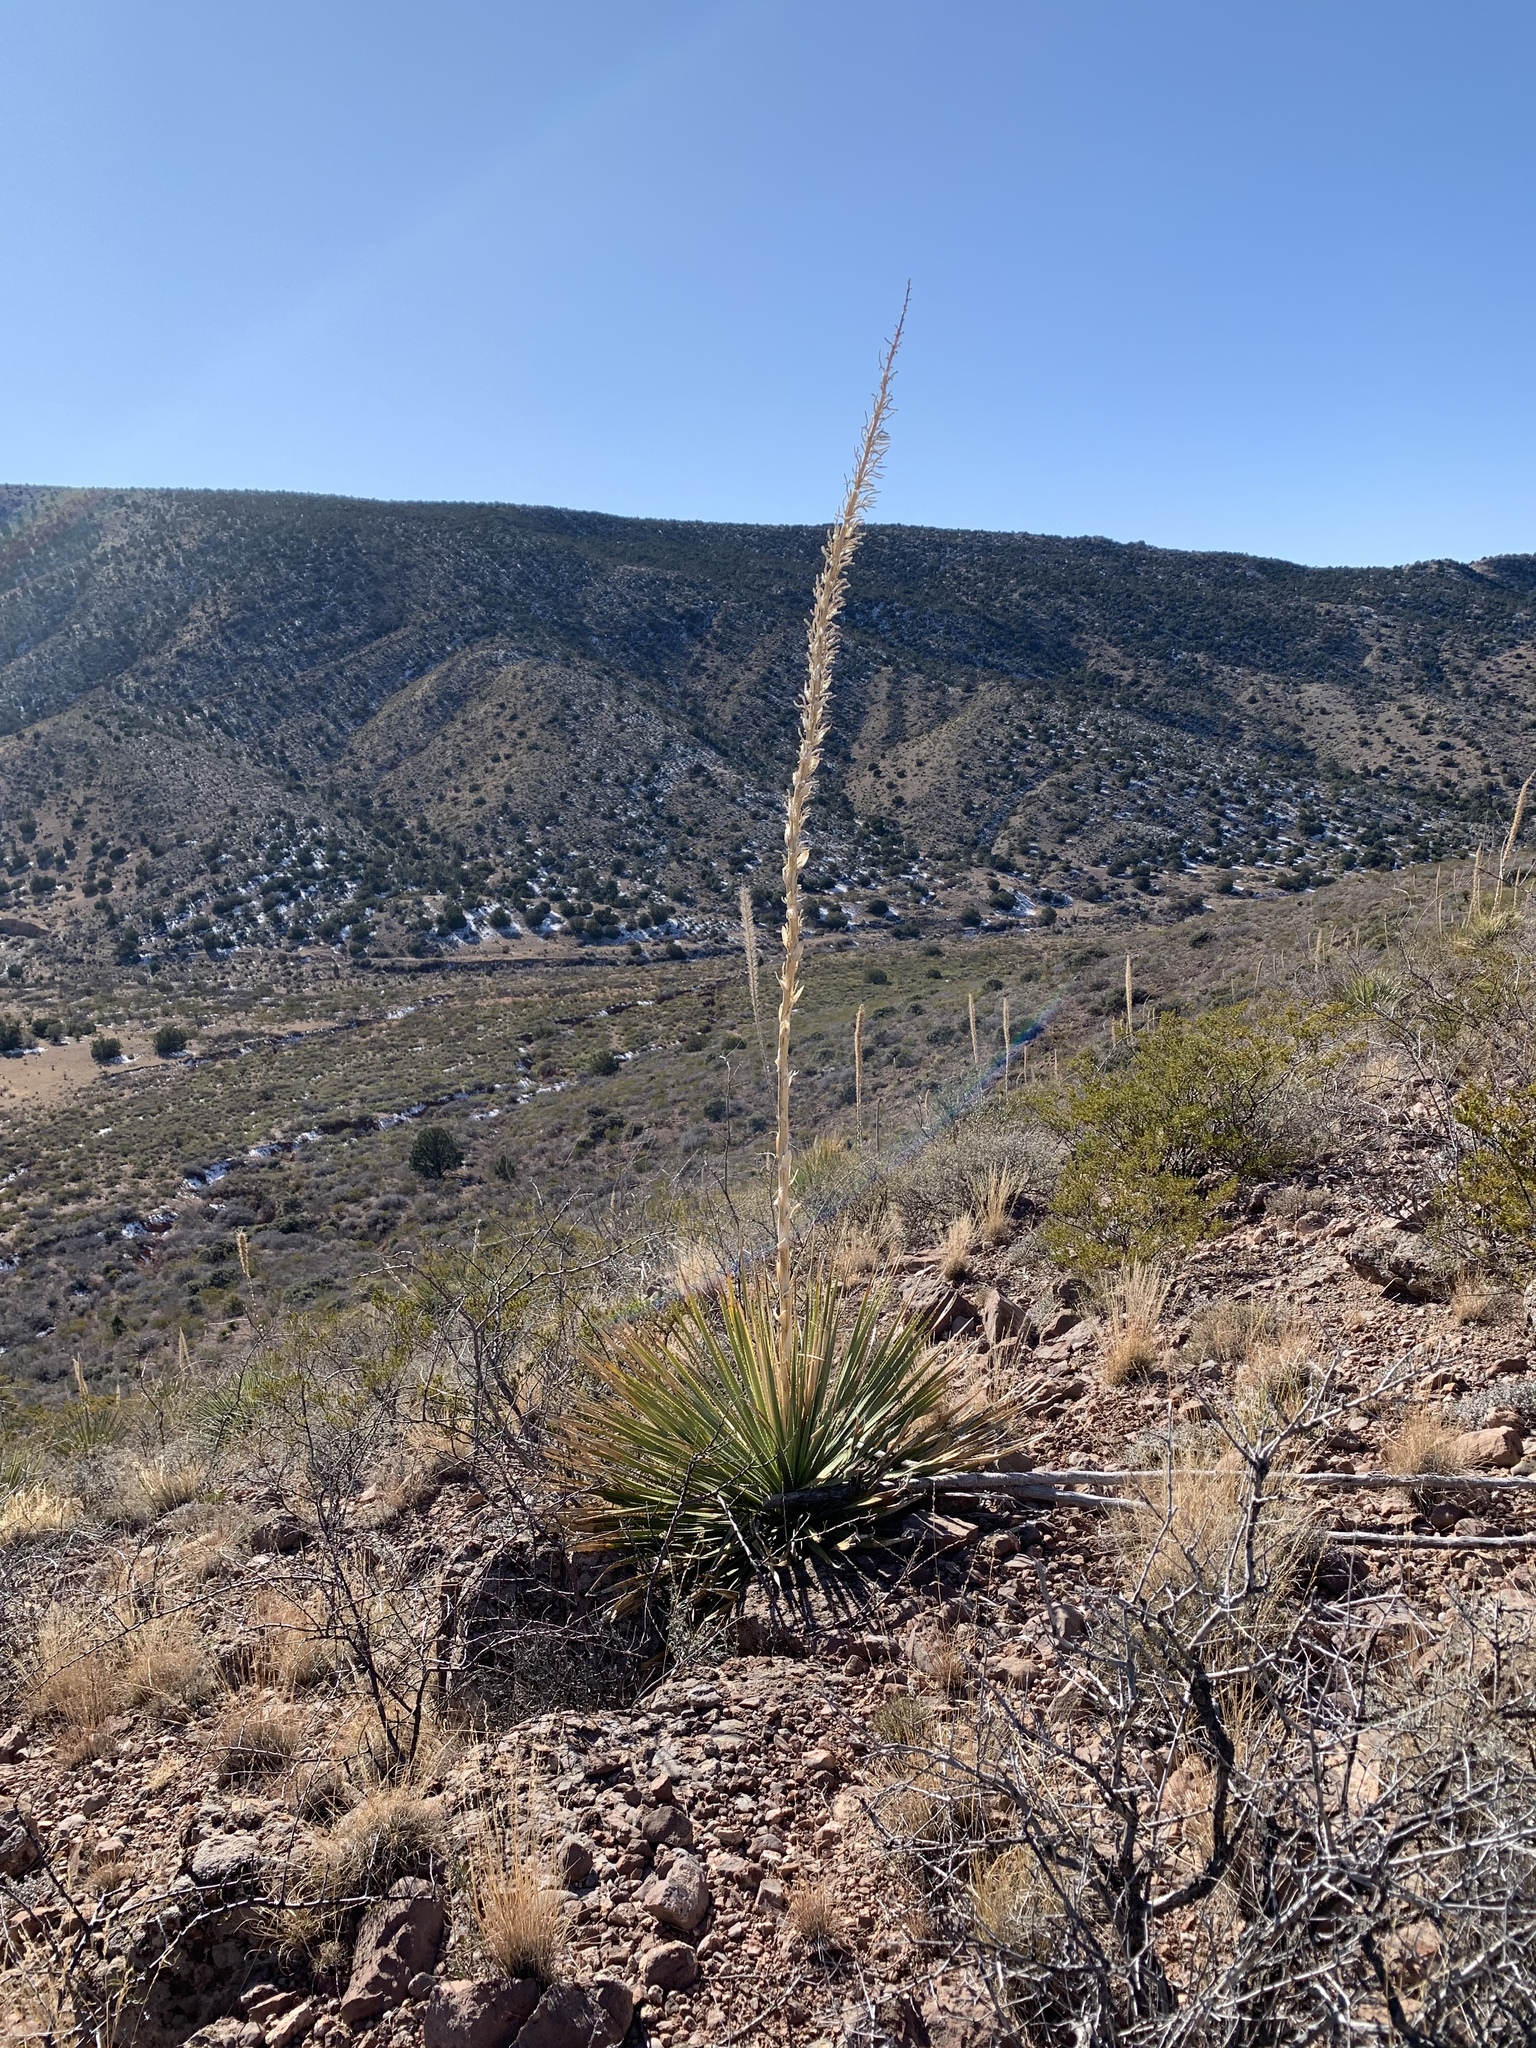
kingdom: Plantae
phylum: Tracheophyta
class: Liliopsida
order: Asparagales
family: Asparagaceae
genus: Dasylirion
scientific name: Dasylirion wheeleri
